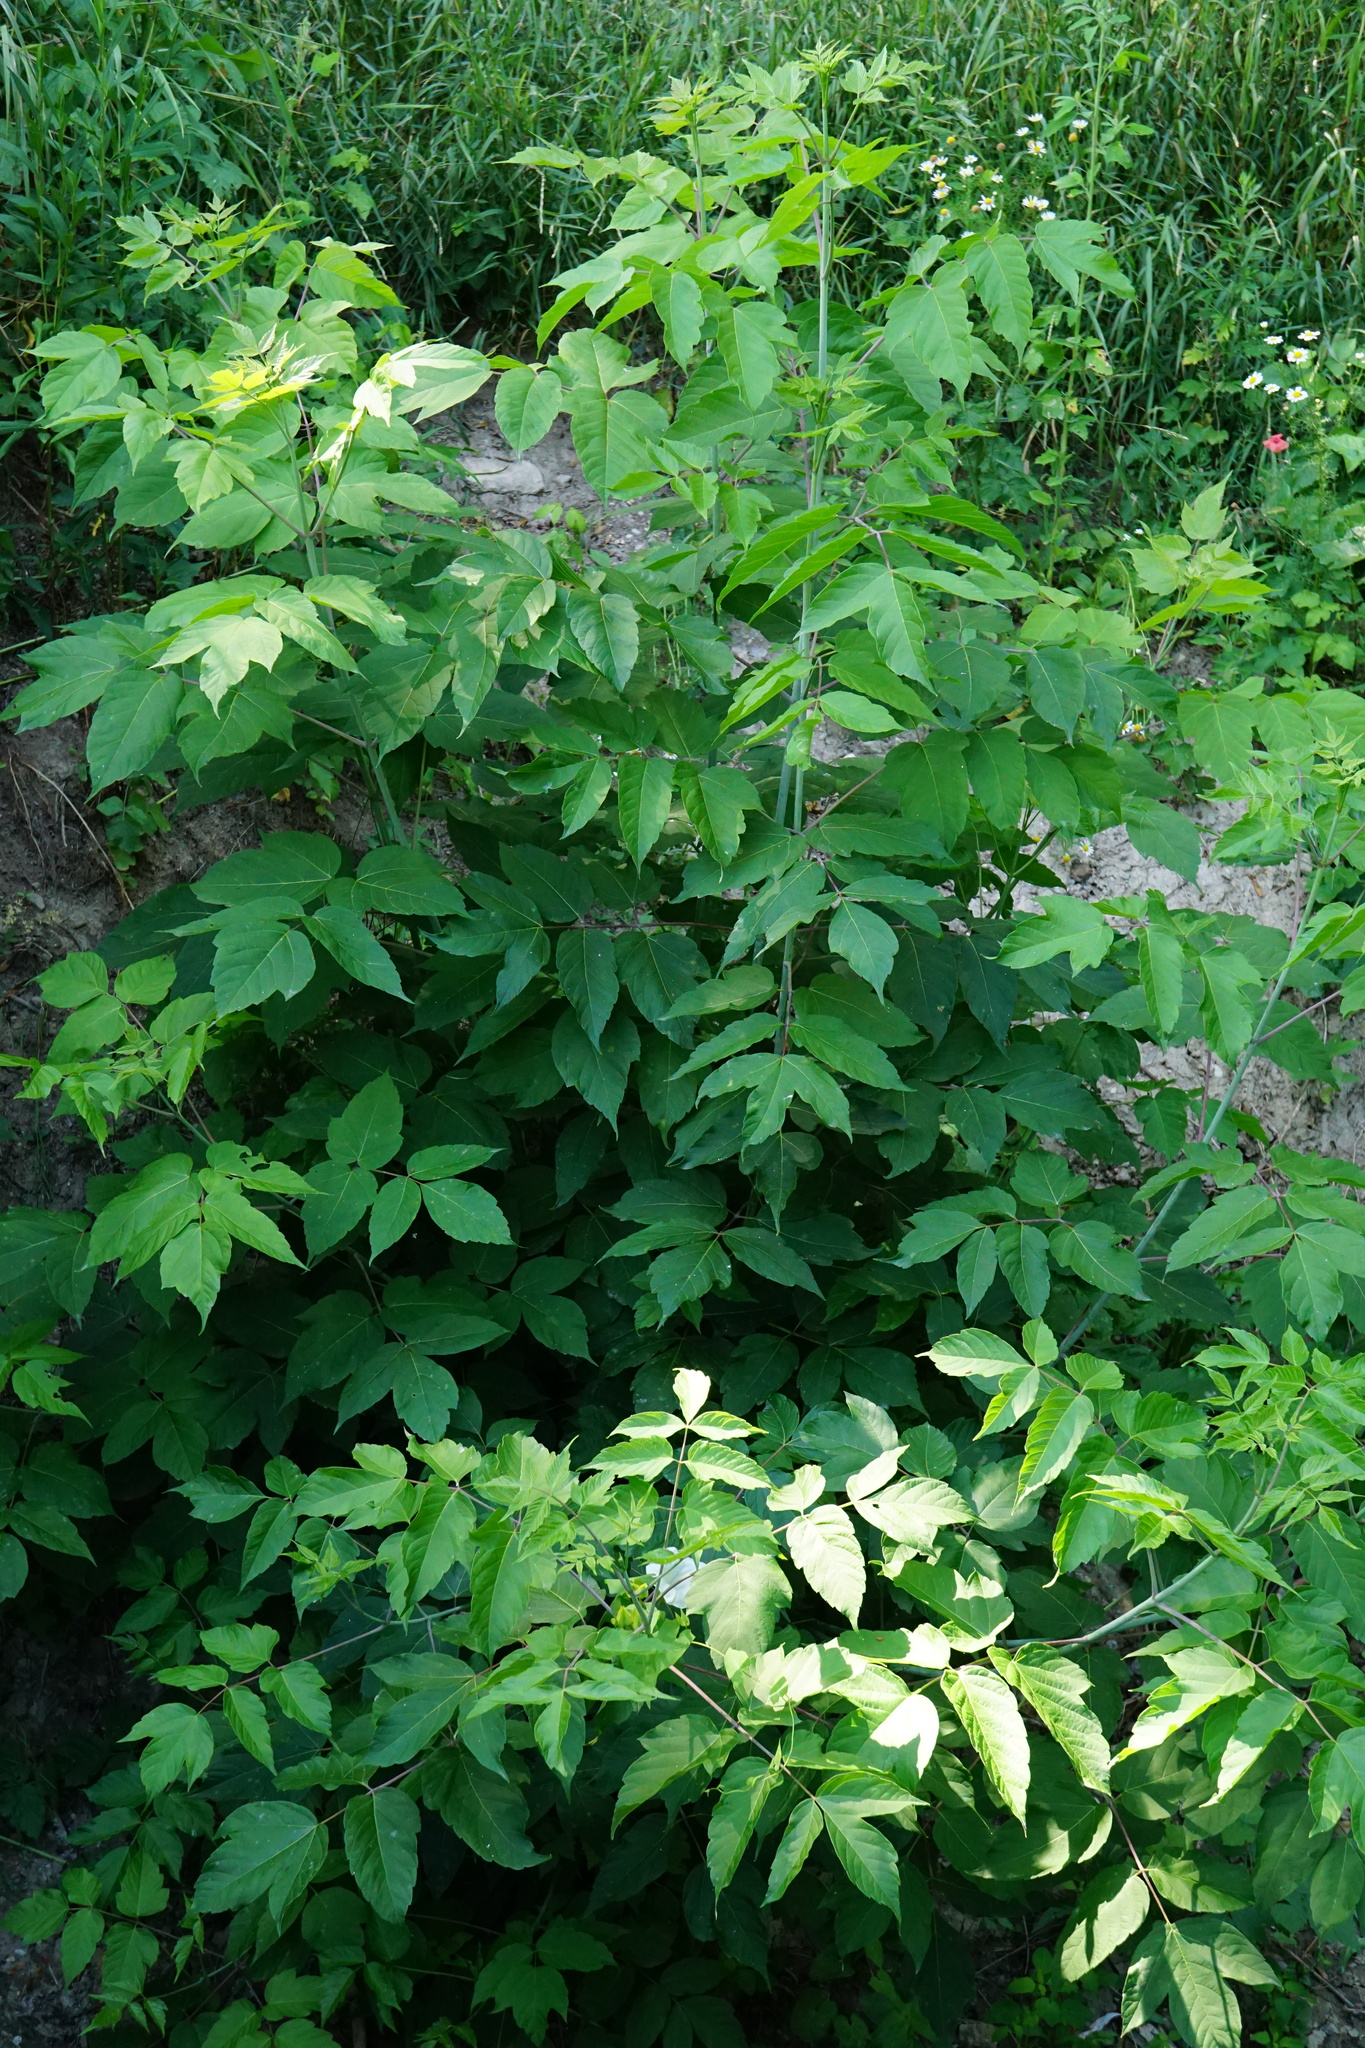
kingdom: Plantae
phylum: Tracheophyta
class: Magnoliopsida
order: Sapindales
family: Sapindaceae
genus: Acer
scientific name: Acer negundo
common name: Ashleaf maple
